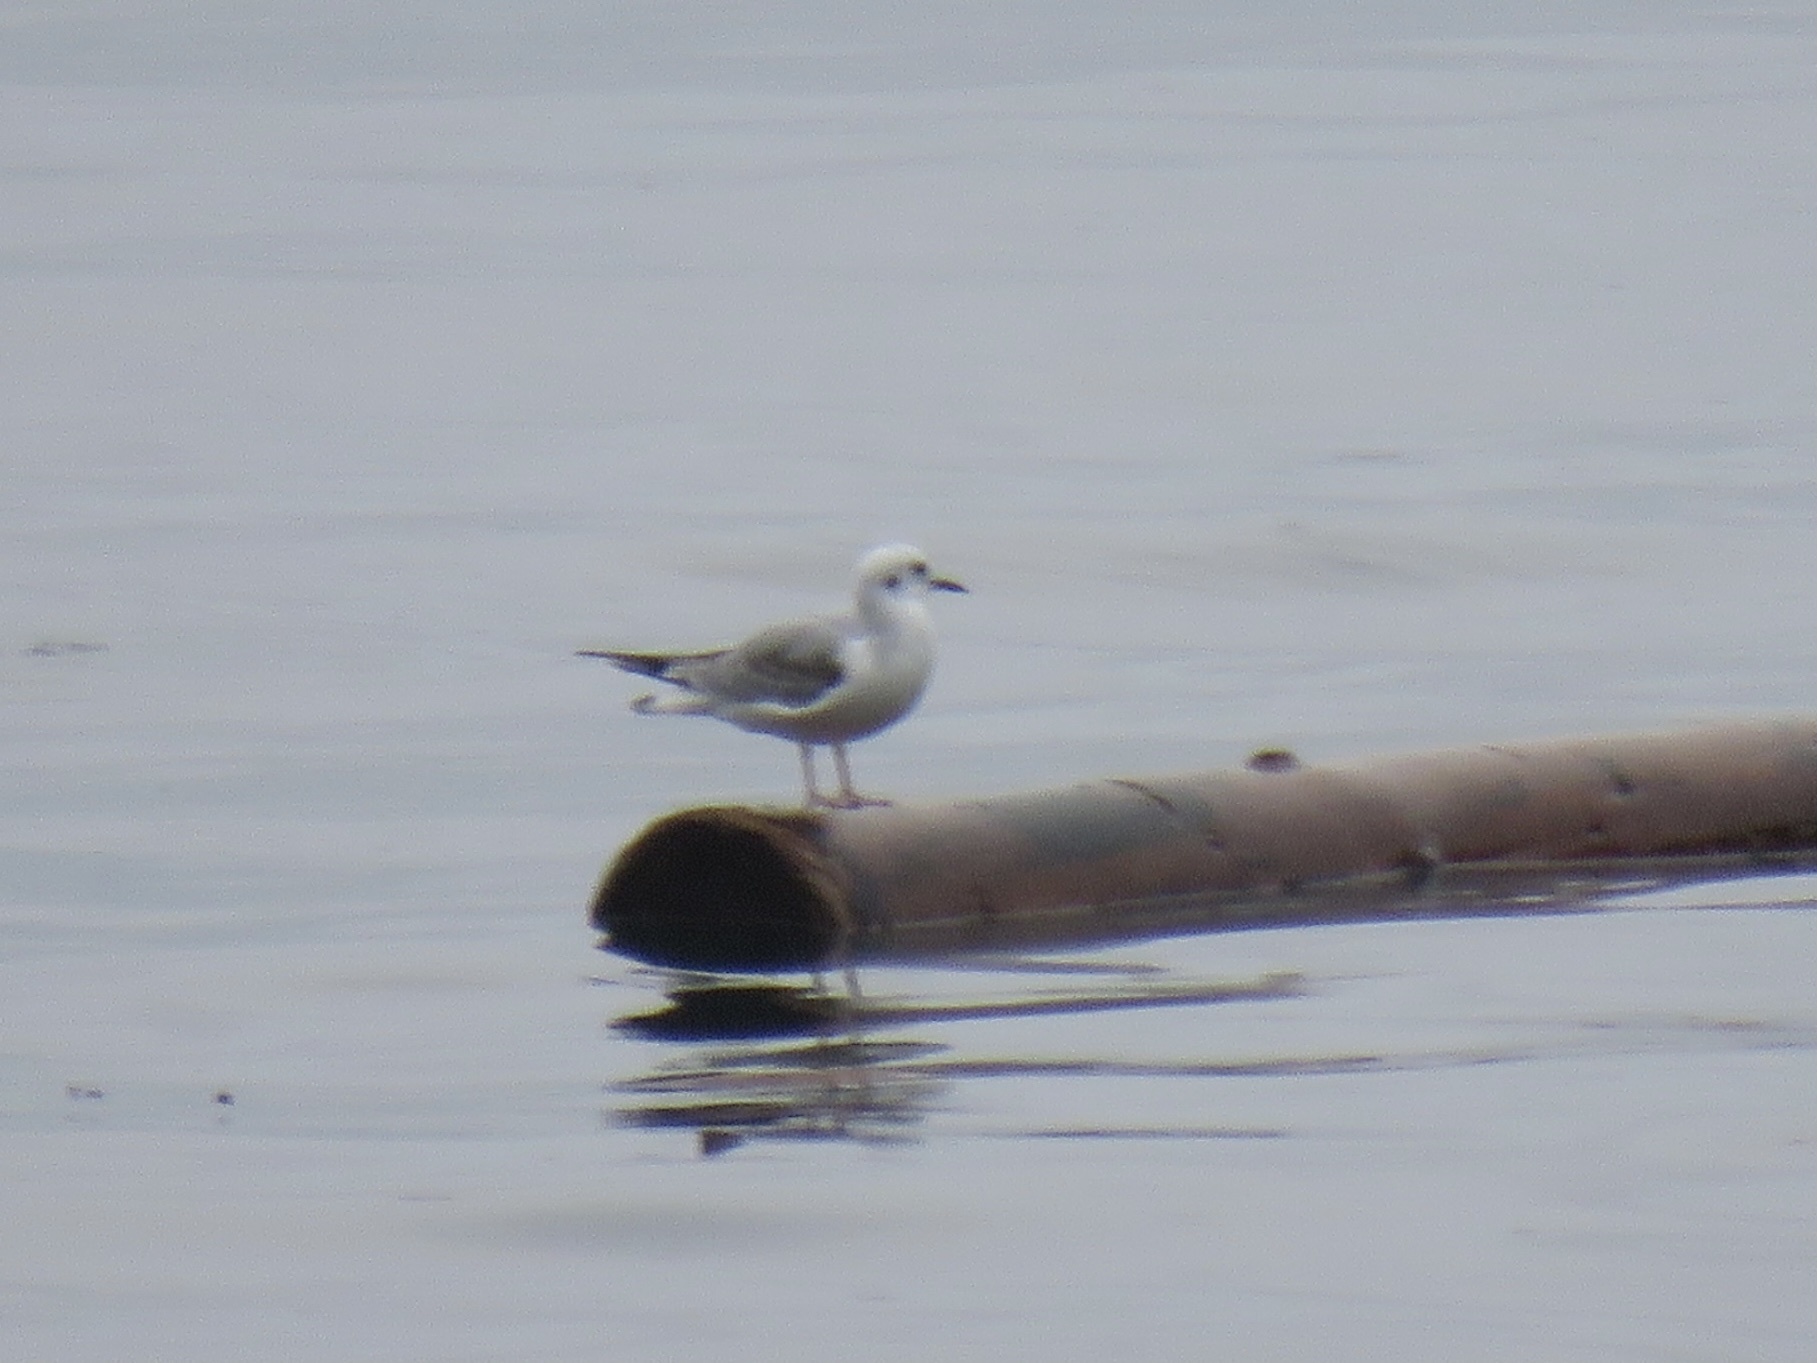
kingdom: Animalia
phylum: Chordata
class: Aves
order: Charadriiformes
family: Laridae
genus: Chroicocephalus
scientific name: Chroicocephalus philadelphia
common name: Bonaparte's gull
